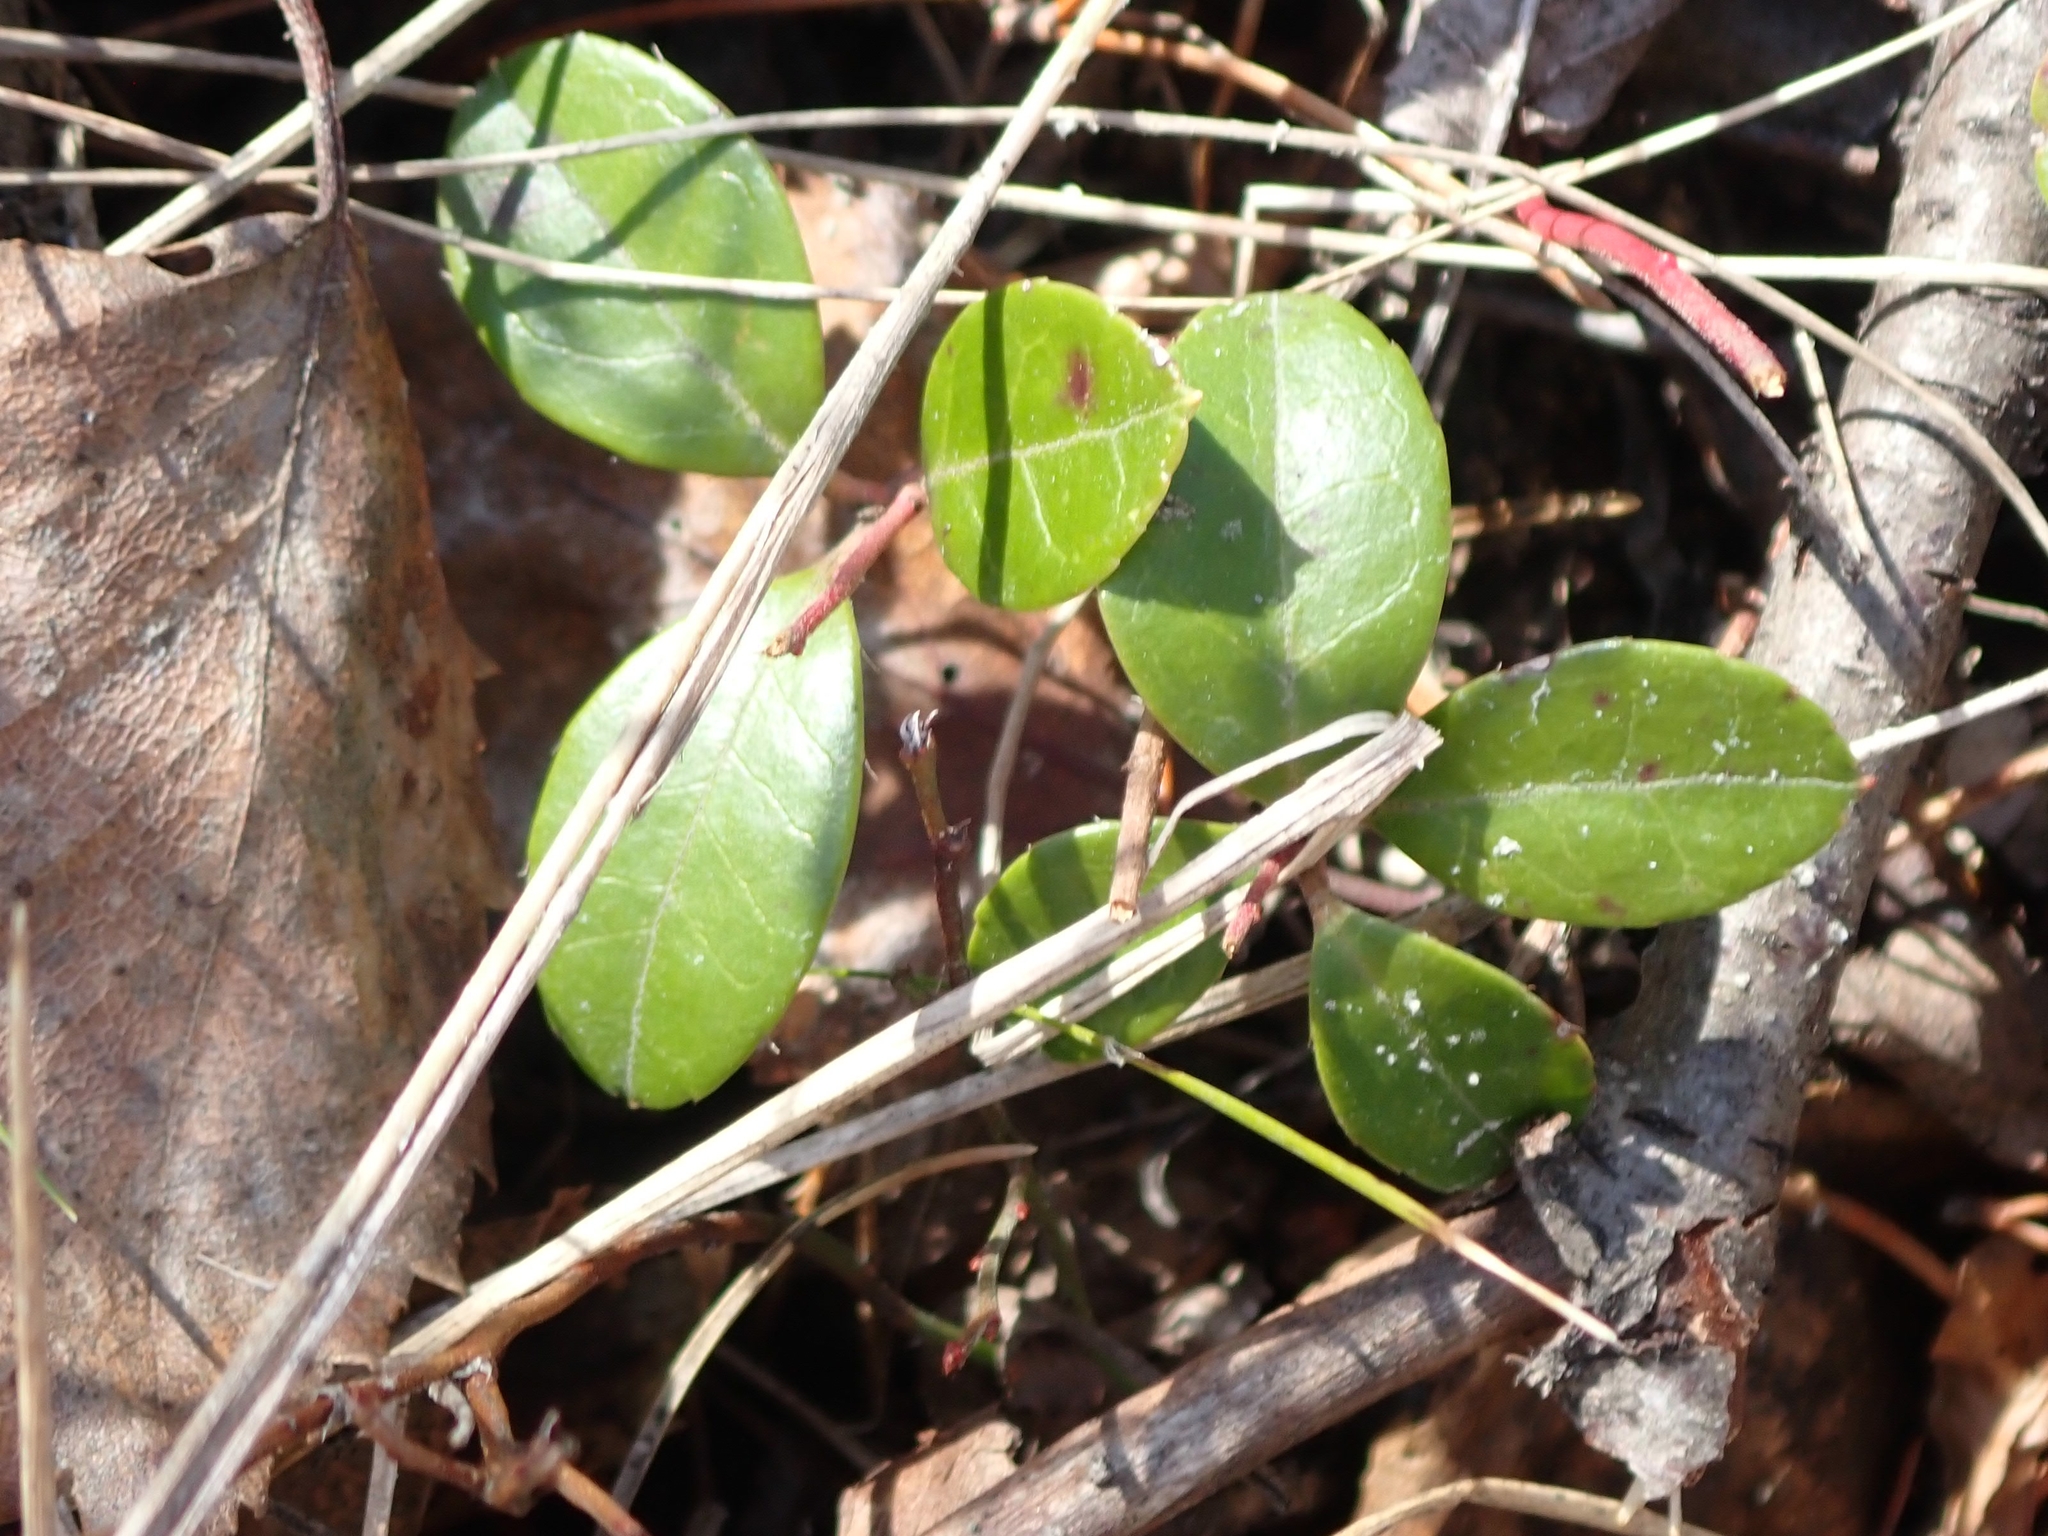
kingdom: Plantae
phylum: Tracheophyta
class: Magnoliopsida
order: Ericales
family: Ericaceae
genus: Gaultheria
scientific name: Gaultheria procumbens
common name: Checkerberry
